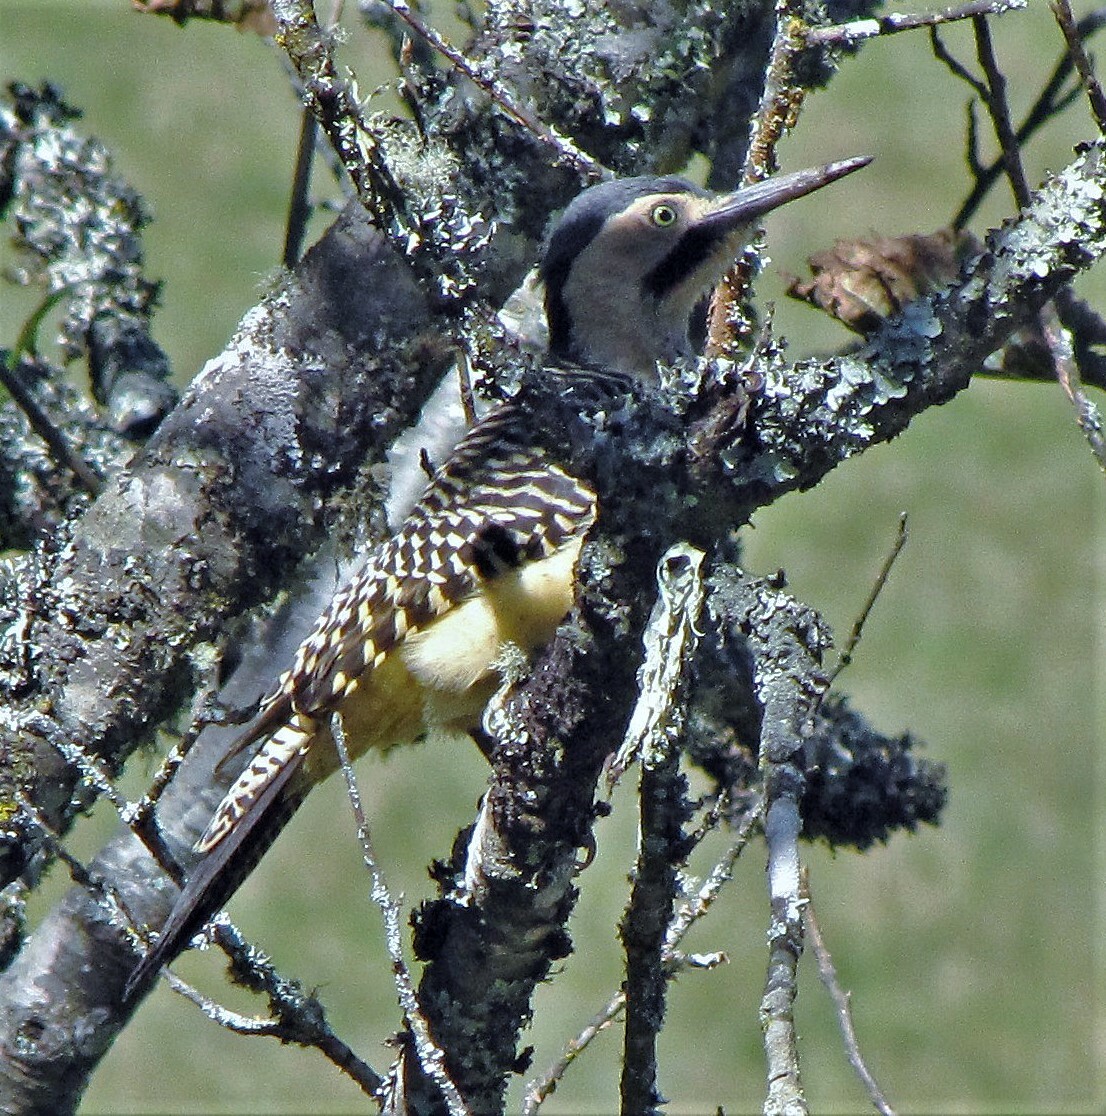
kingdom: Animalia
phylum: Chordata
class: Aves
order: Piciformes
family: Picidae
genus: Colaptes
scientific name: Colaptes rupicola
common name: Andean flicker
